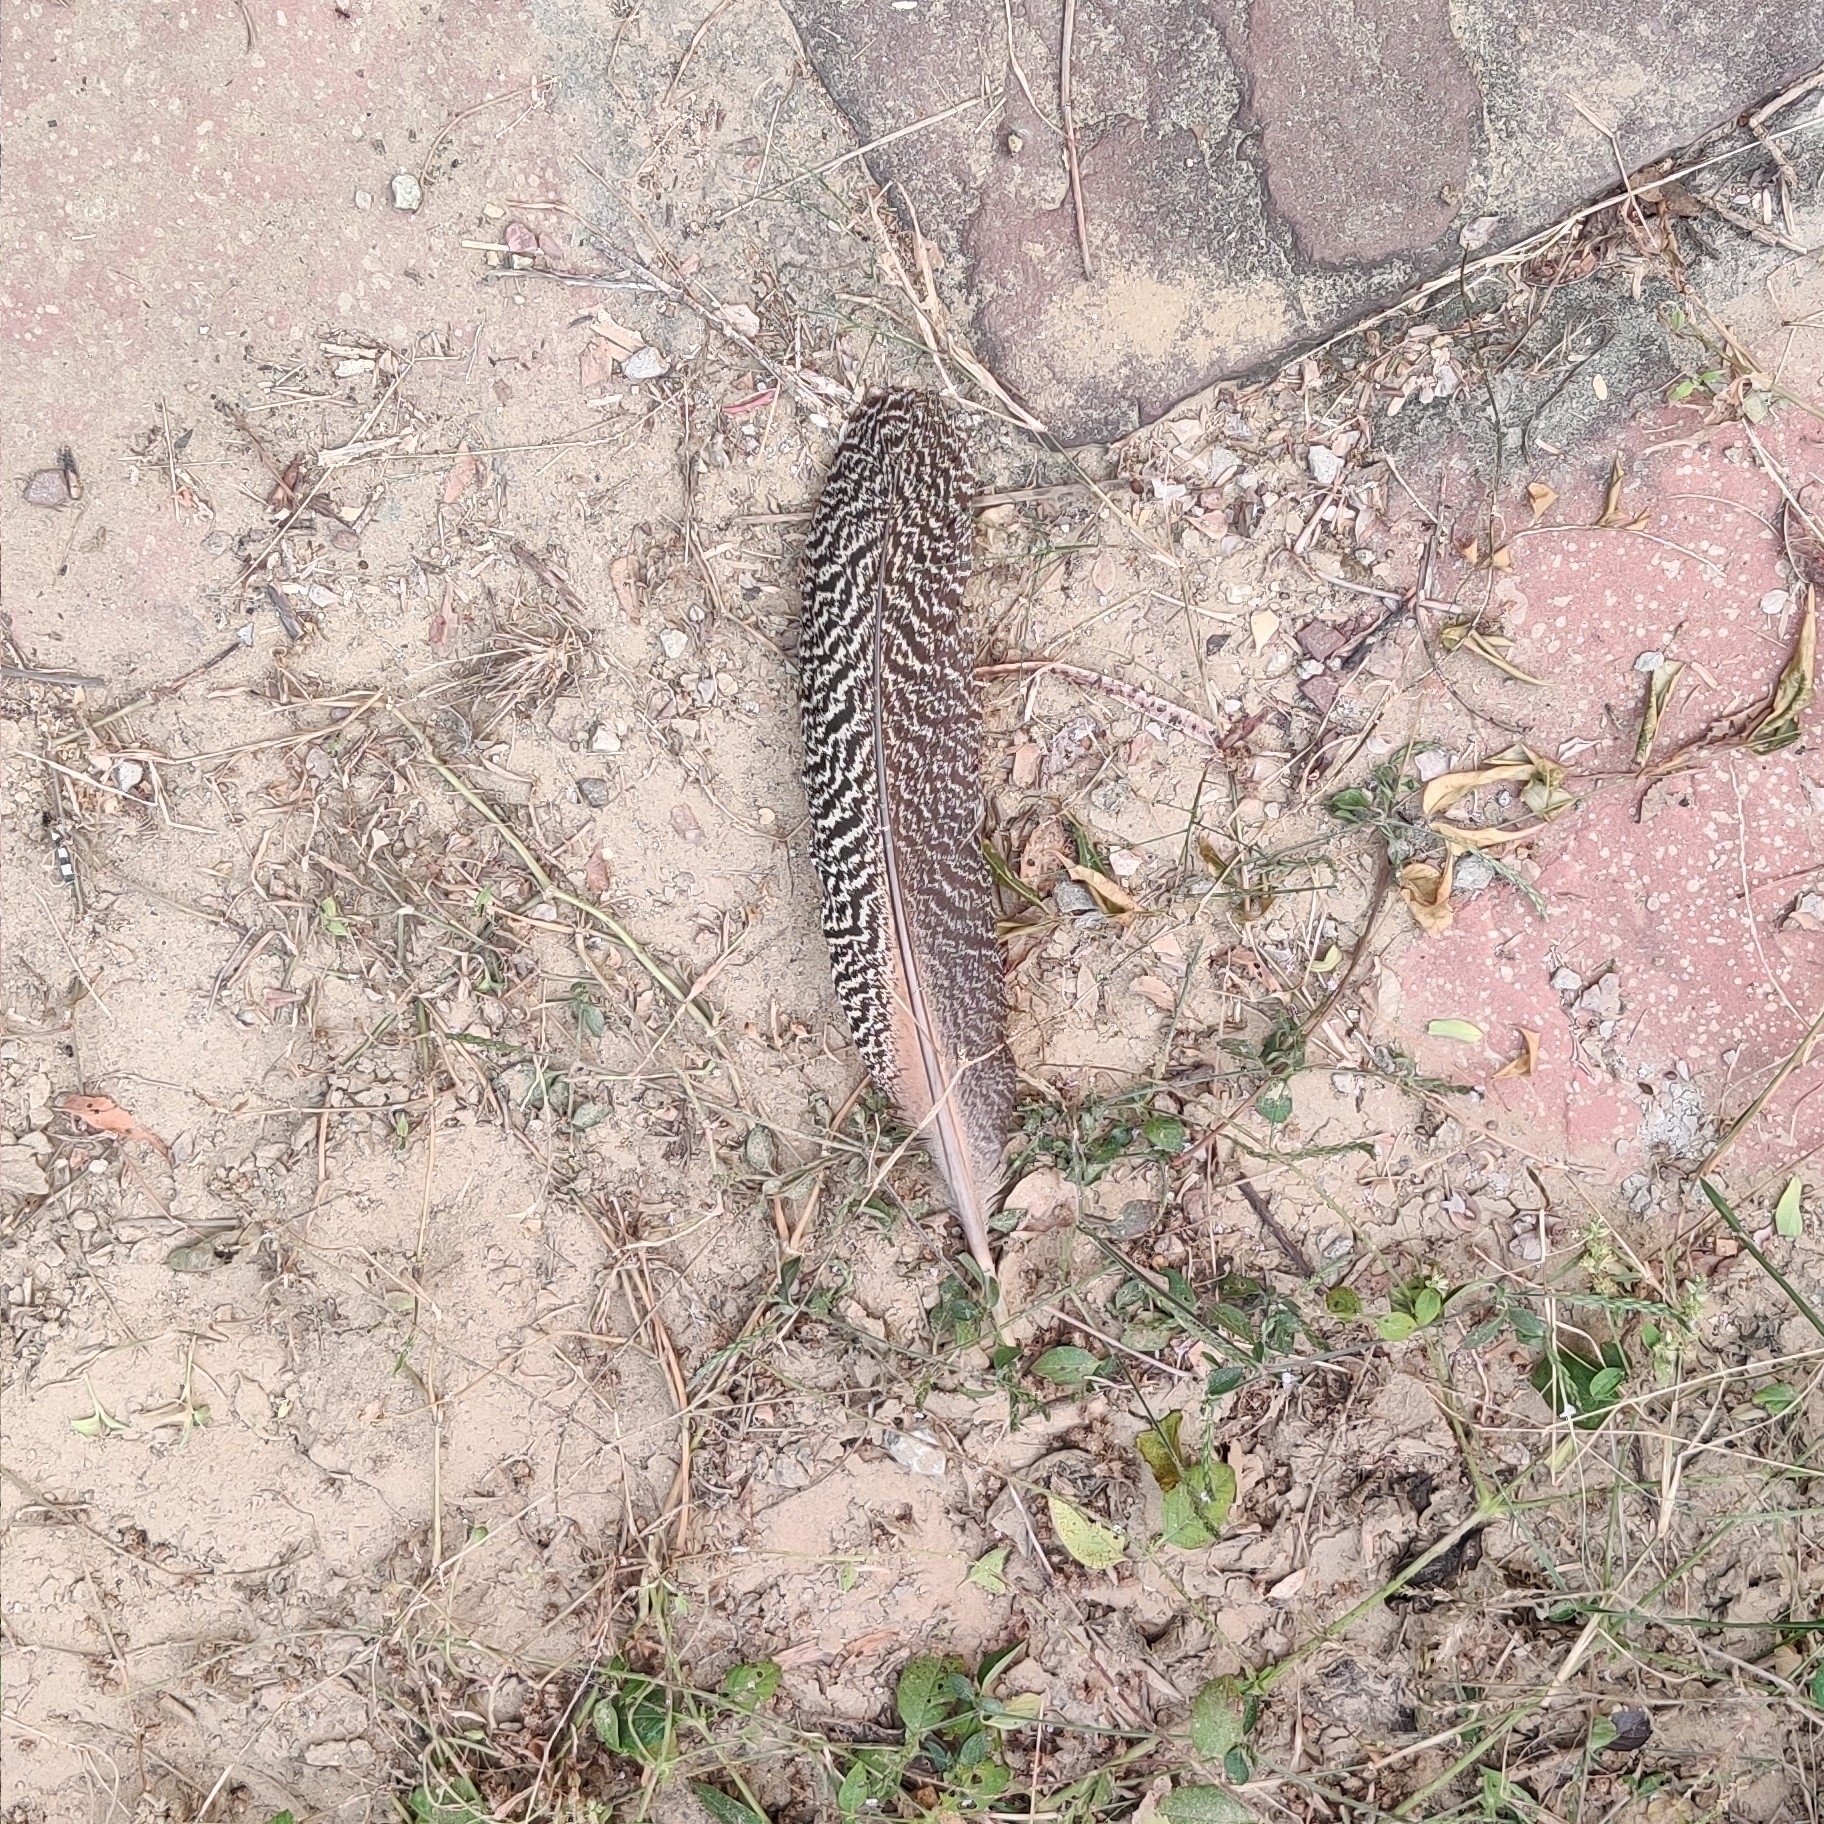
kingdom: Animalia
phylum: Chordata
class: Aves
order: Galliformes
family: Phasianidae
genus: Pavo
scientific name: Pavo cristatus
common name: Indian peafowl
